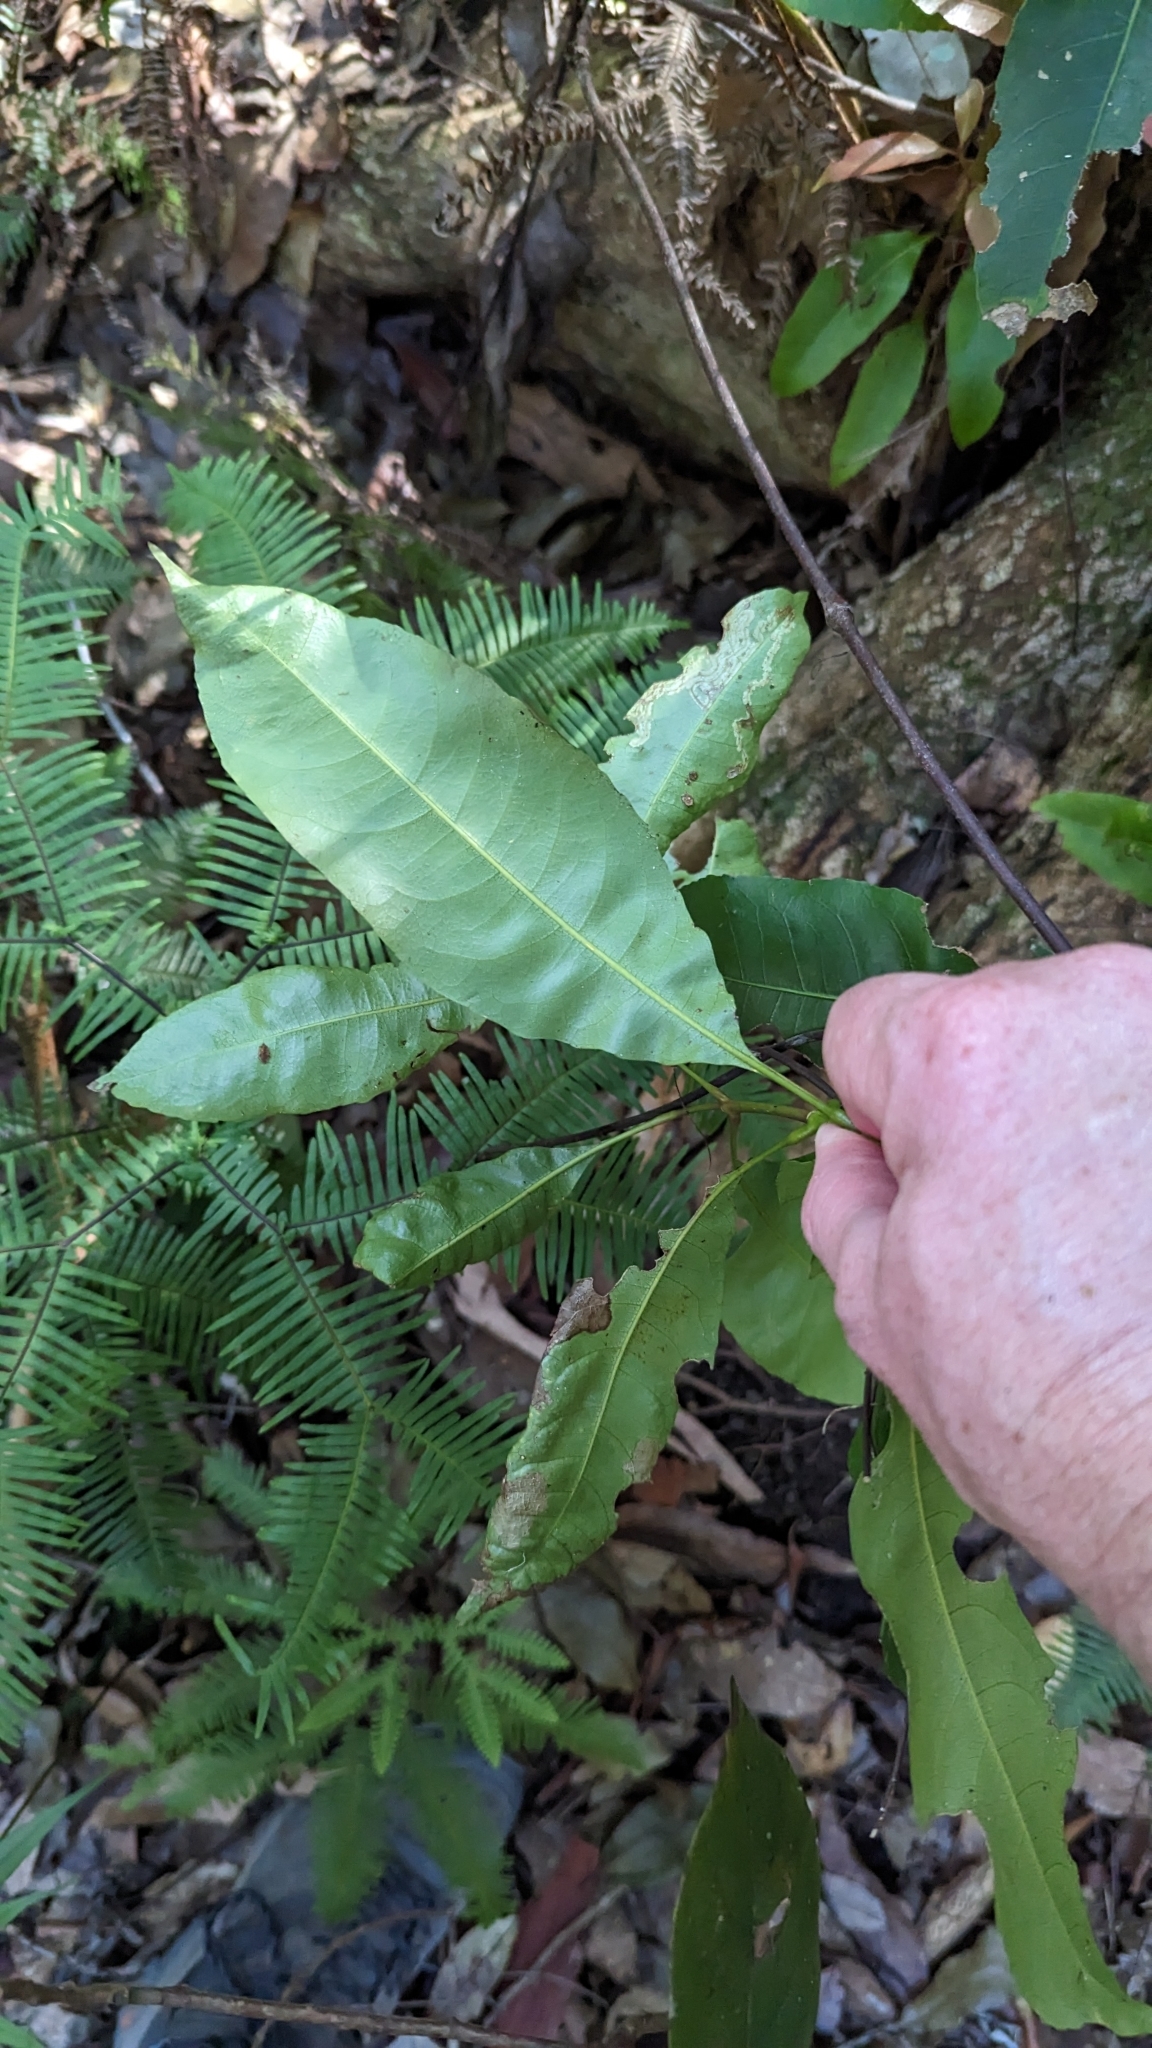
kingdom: Plantae
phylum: Tracheophyta
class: Magnoliopsida
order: Oxalidales
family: Cunoniaceae
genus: Schizomeria
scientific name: Schizomeria ovata
